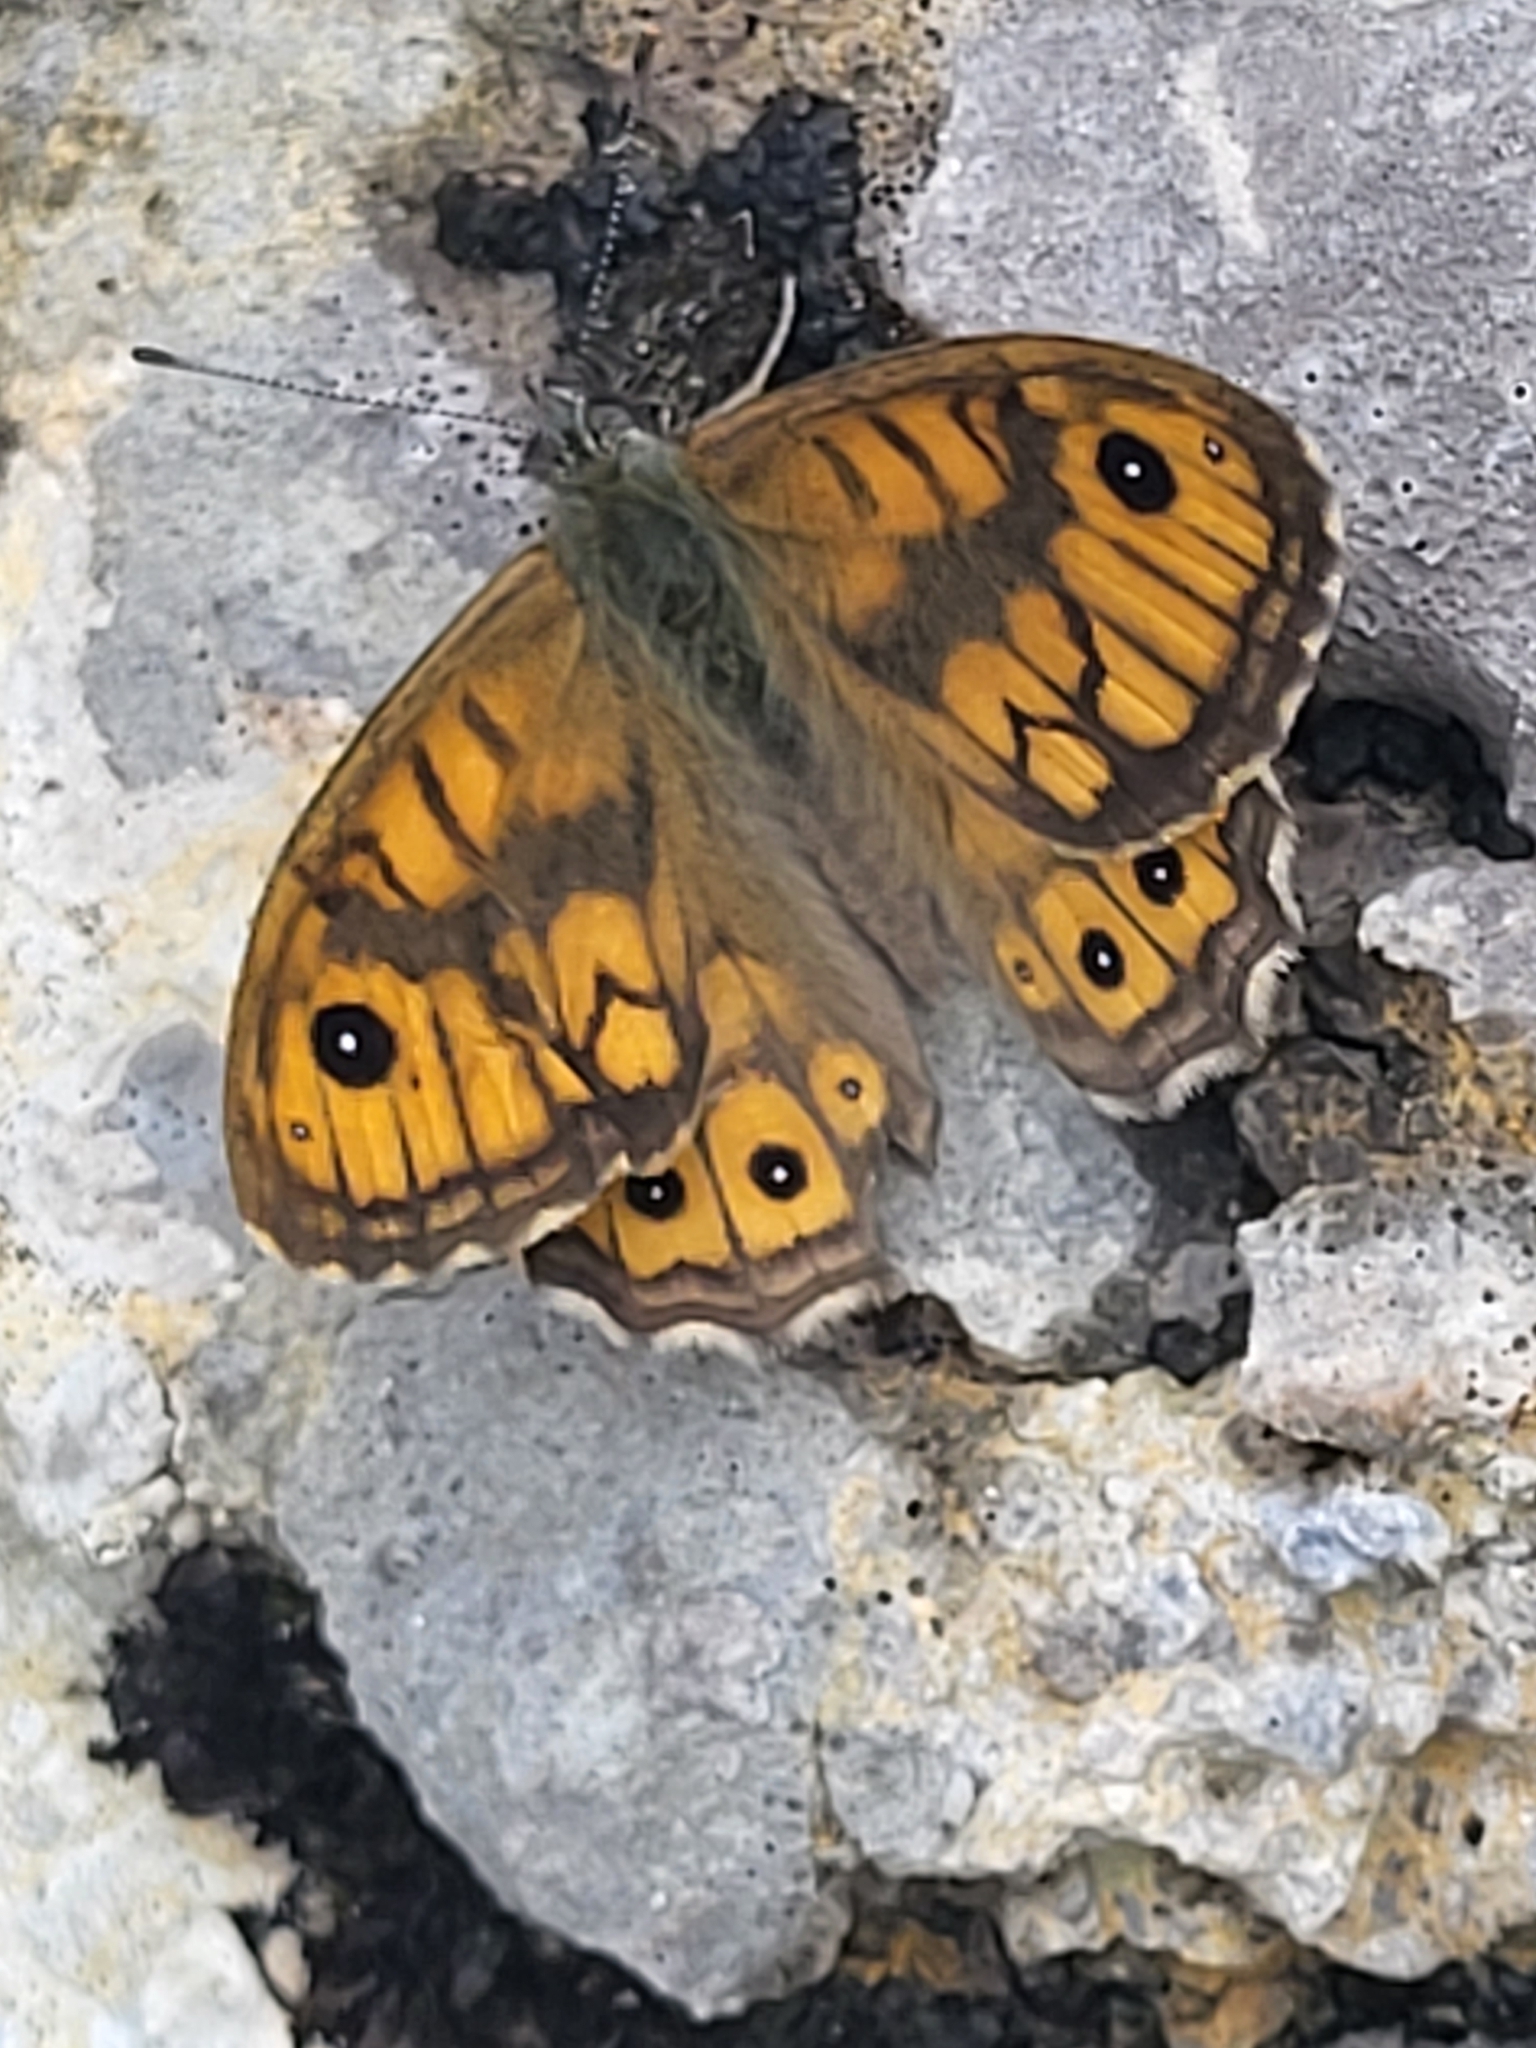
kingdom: Animalia
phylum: Arthropoda
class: Insecta
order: Lepidoptera
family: Nymphalidae
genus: Pararge
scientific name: Pararge Lasiommata megera
